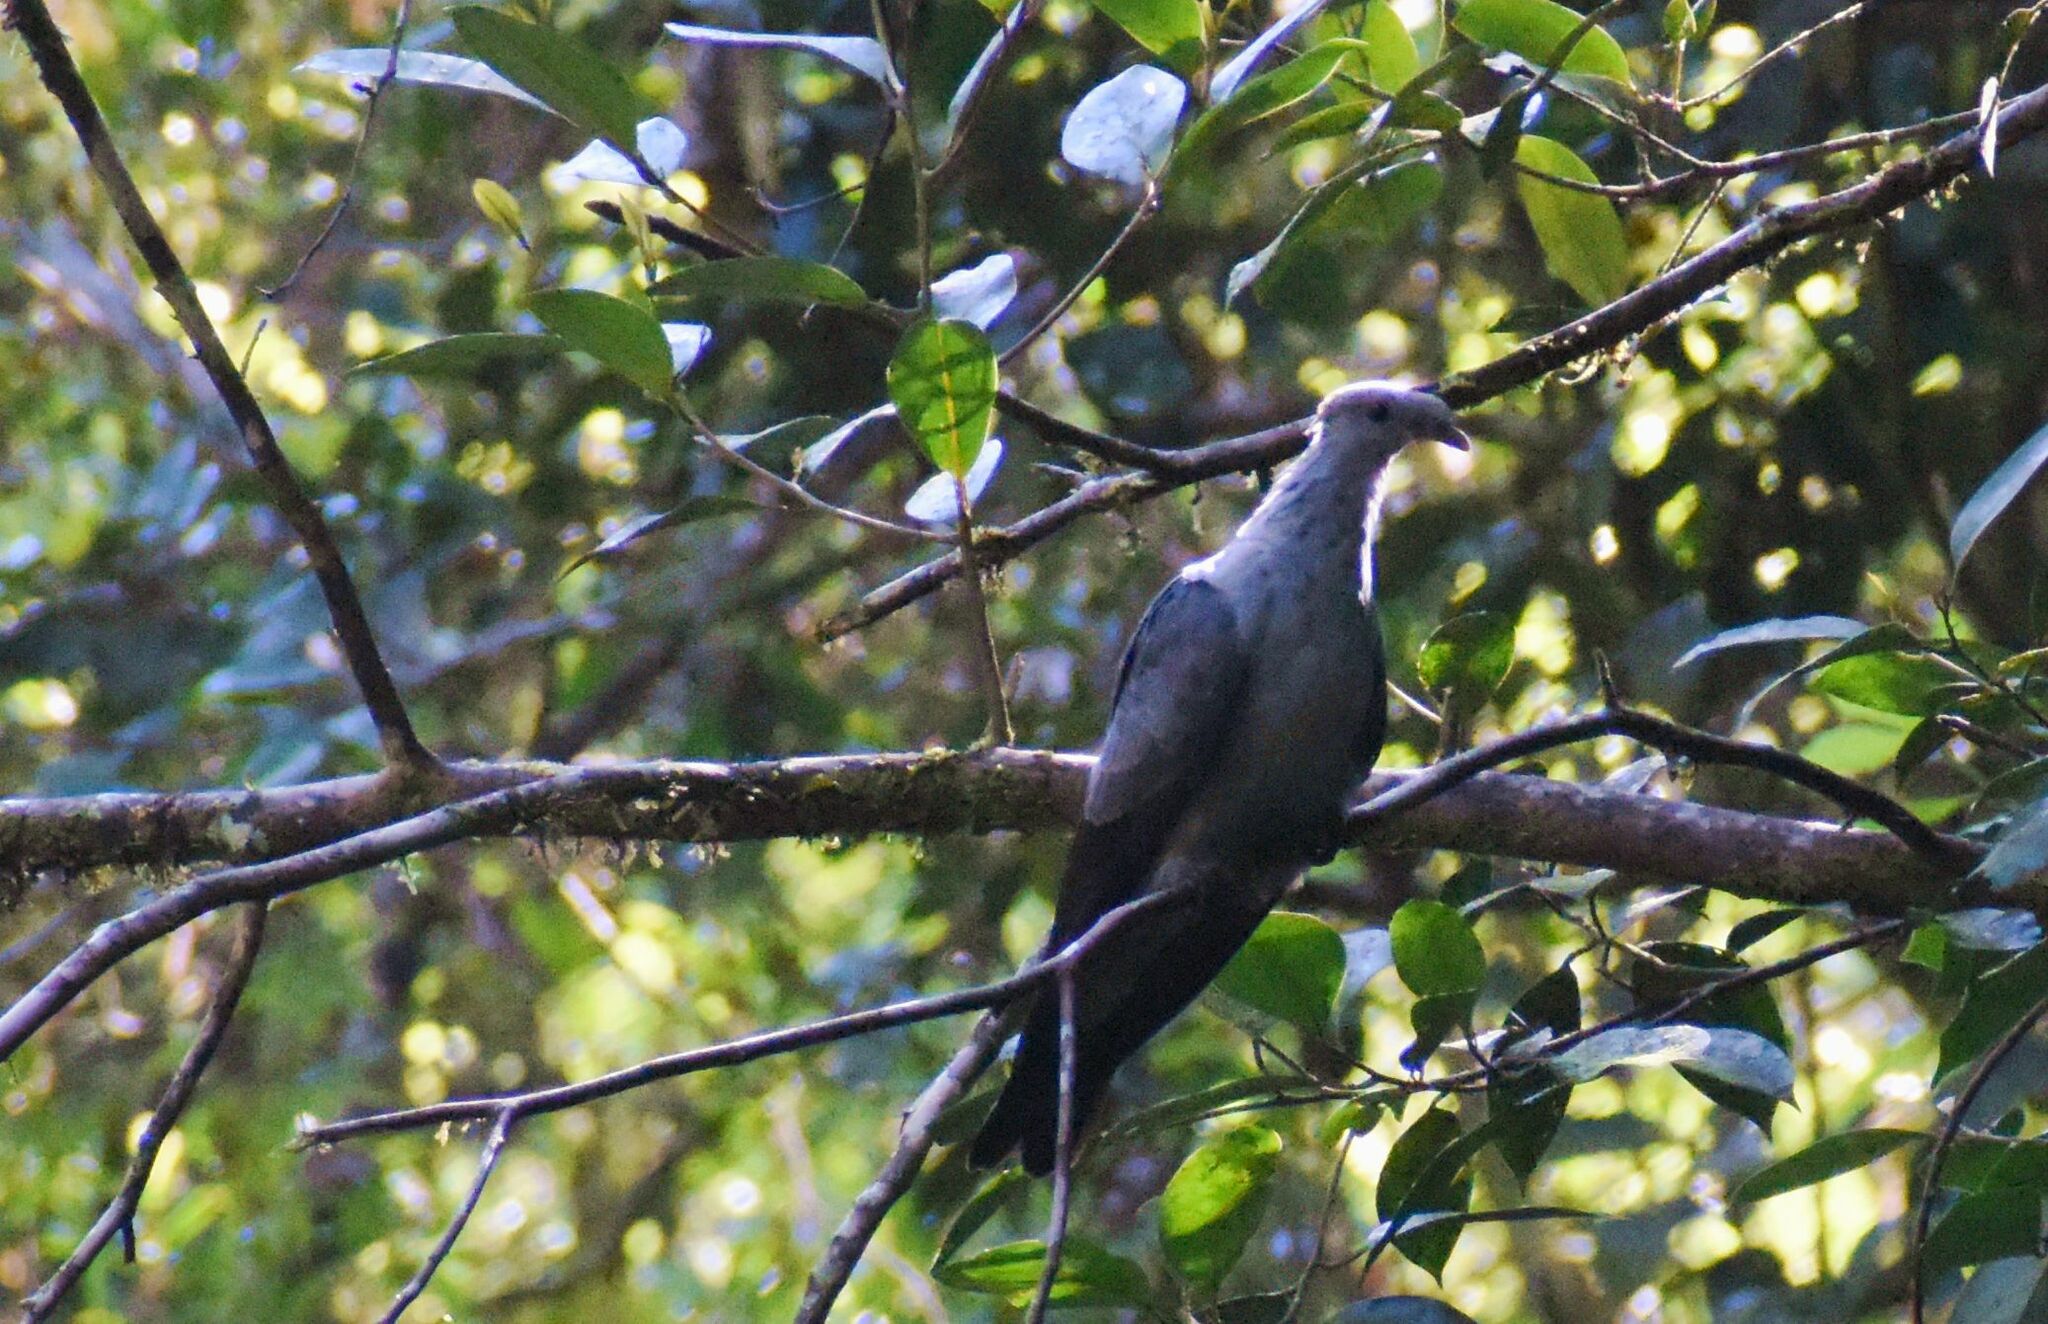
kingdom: Animalia
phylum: Chordata
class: Aves
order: Columbiformes
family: Columbidae
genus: Lopholaimus
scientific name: Lopholaimus antarcticus
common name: Topknot pigeon
